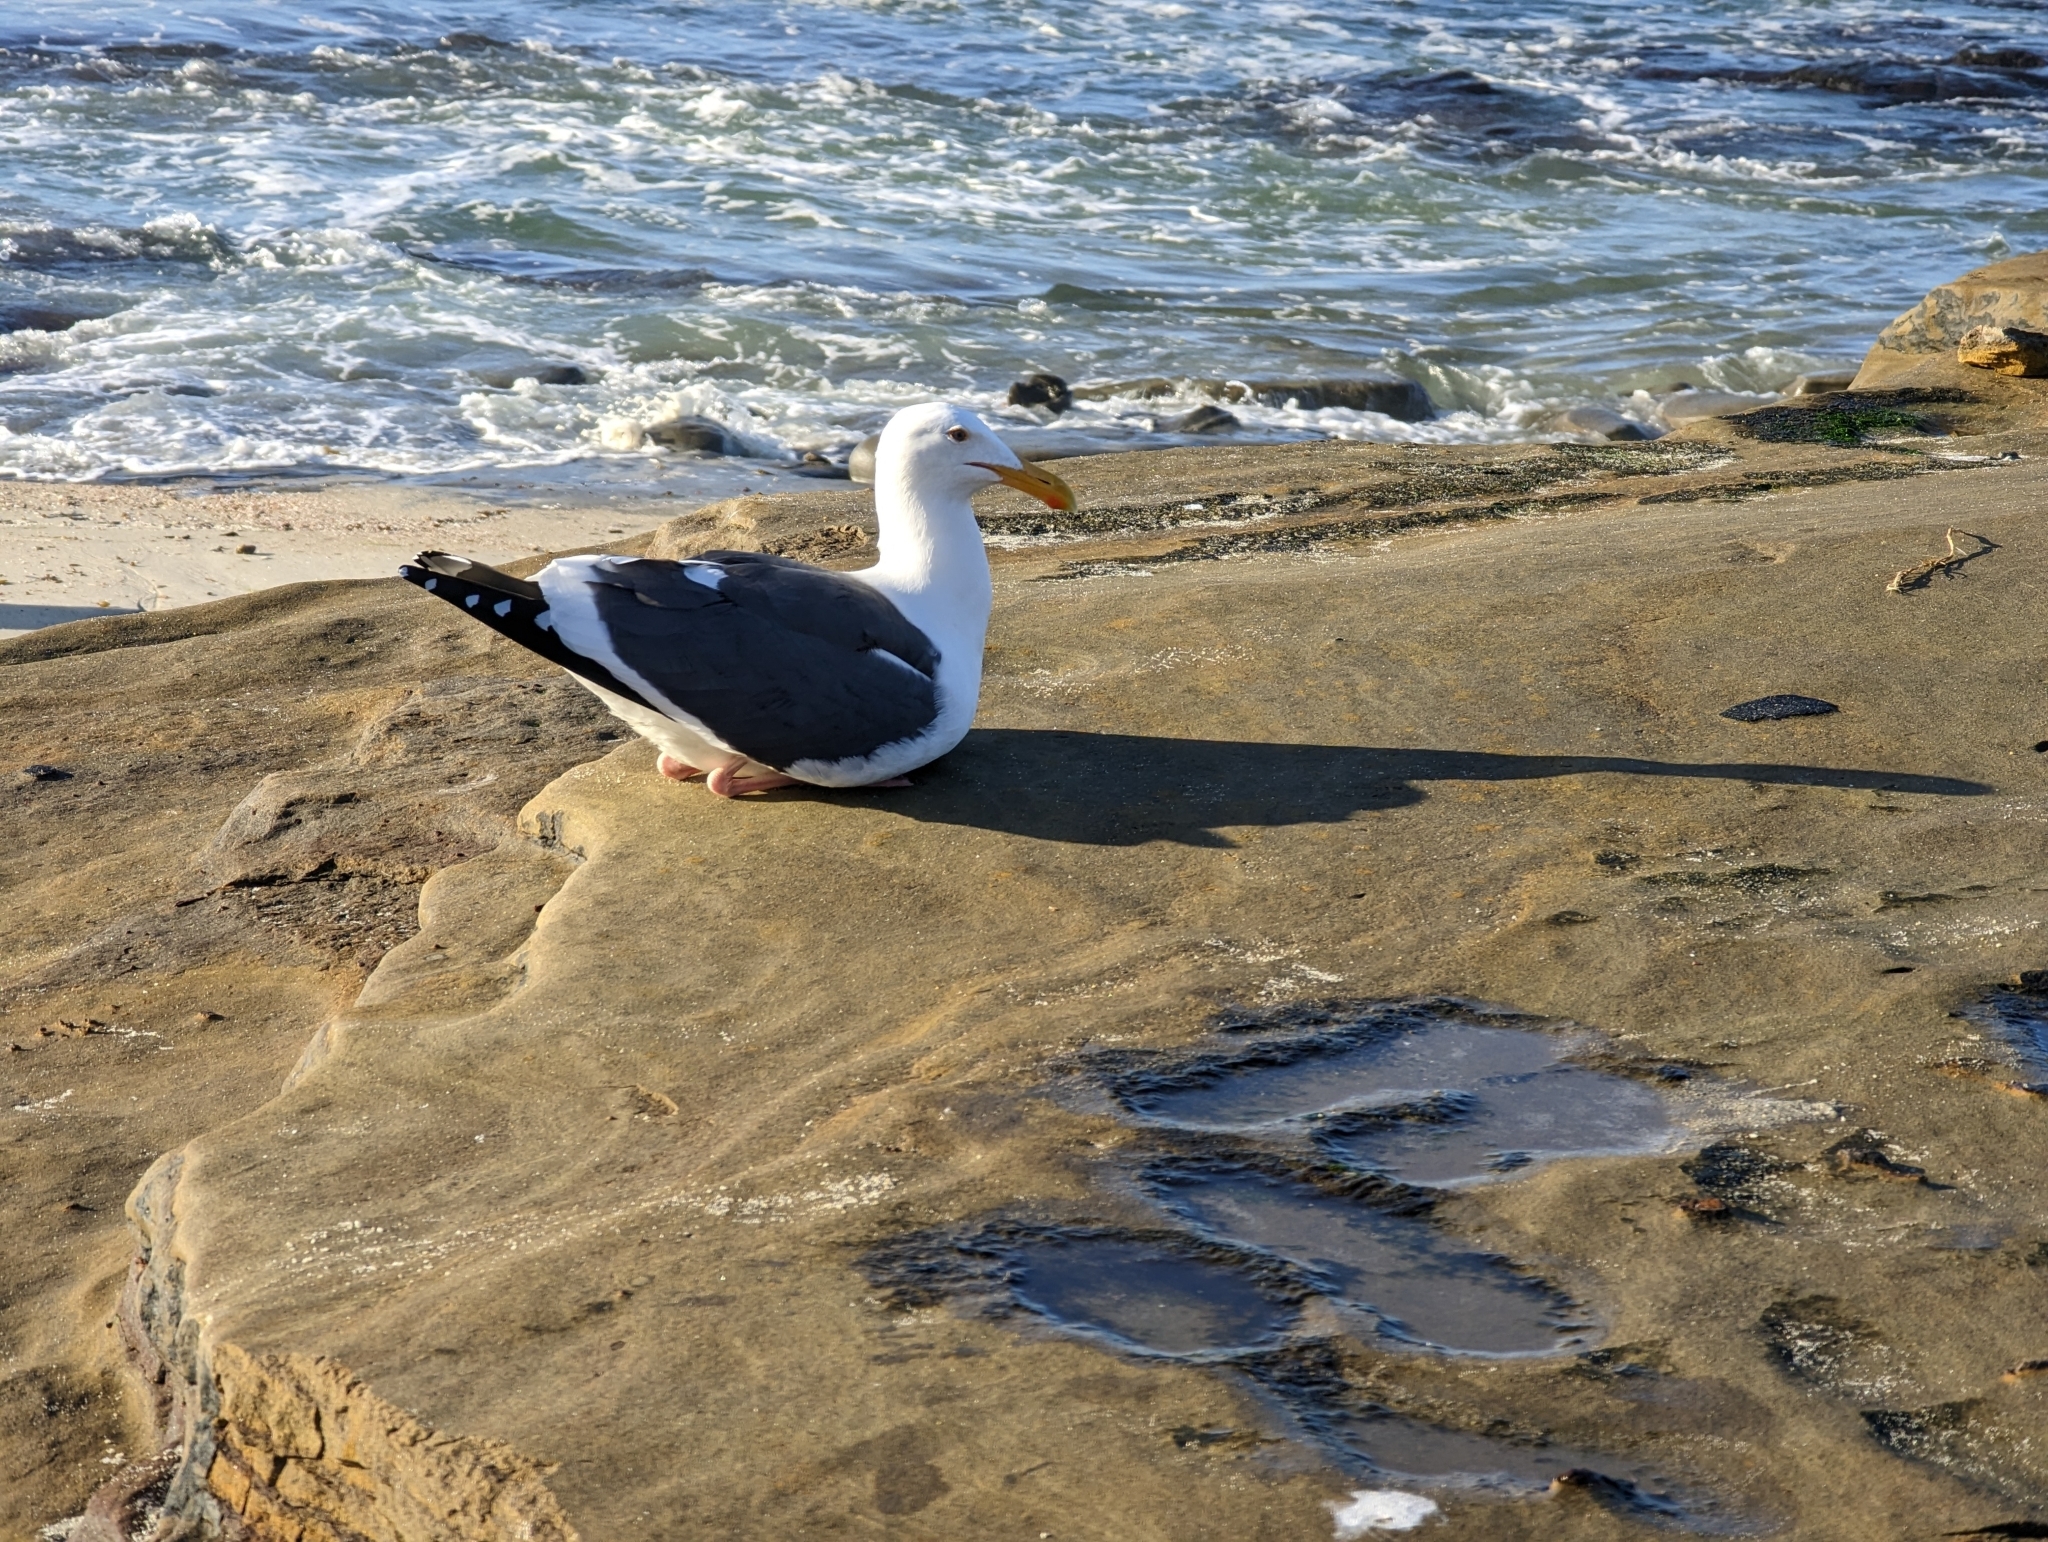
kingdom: Animalia
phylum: Chordata
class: Aves
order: Charadriiformes
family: Laridae
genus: Larus
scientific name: Larus occidentalis
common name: Western gull
